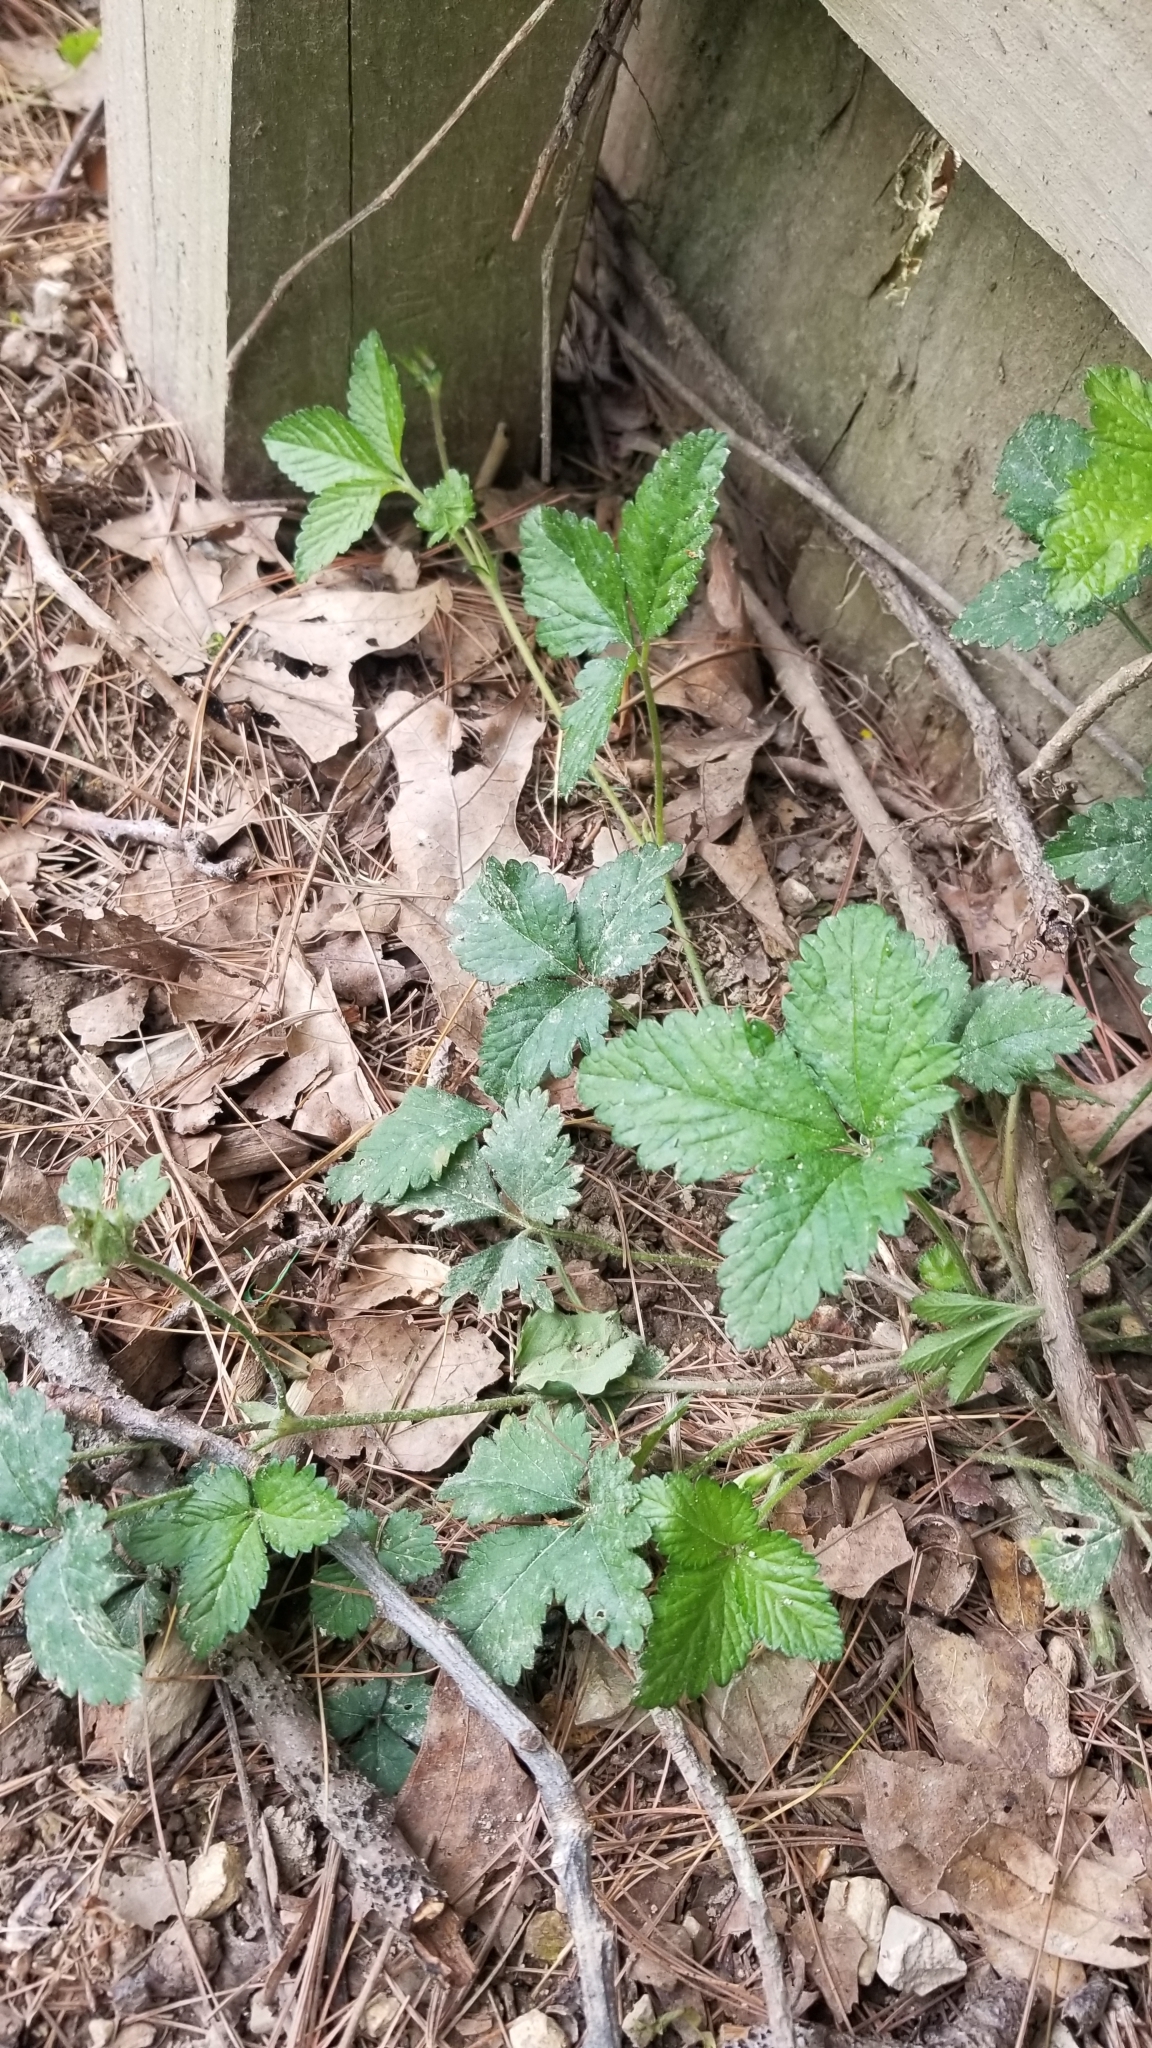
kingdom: Plantae
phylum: Tracheophyta
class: Magnoliopsida
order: Rosales
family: Rosaceae
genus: Potentilla
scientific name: Potentilla indica
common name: Yellow-flowered strawberry
